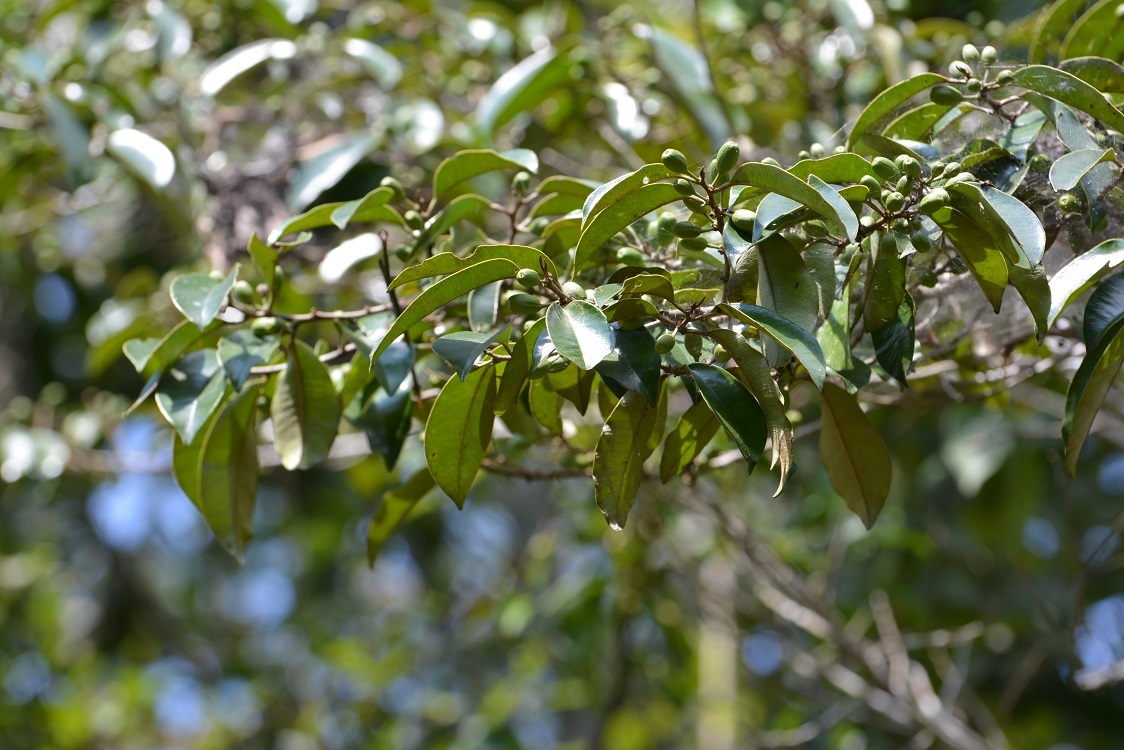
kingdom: Plantae
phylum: Tracheophyta
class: Magnoliopsida
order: Ericales
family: Sapotaceae
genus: Chrysophyllum
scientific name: Chrysophyllum mexicanum
